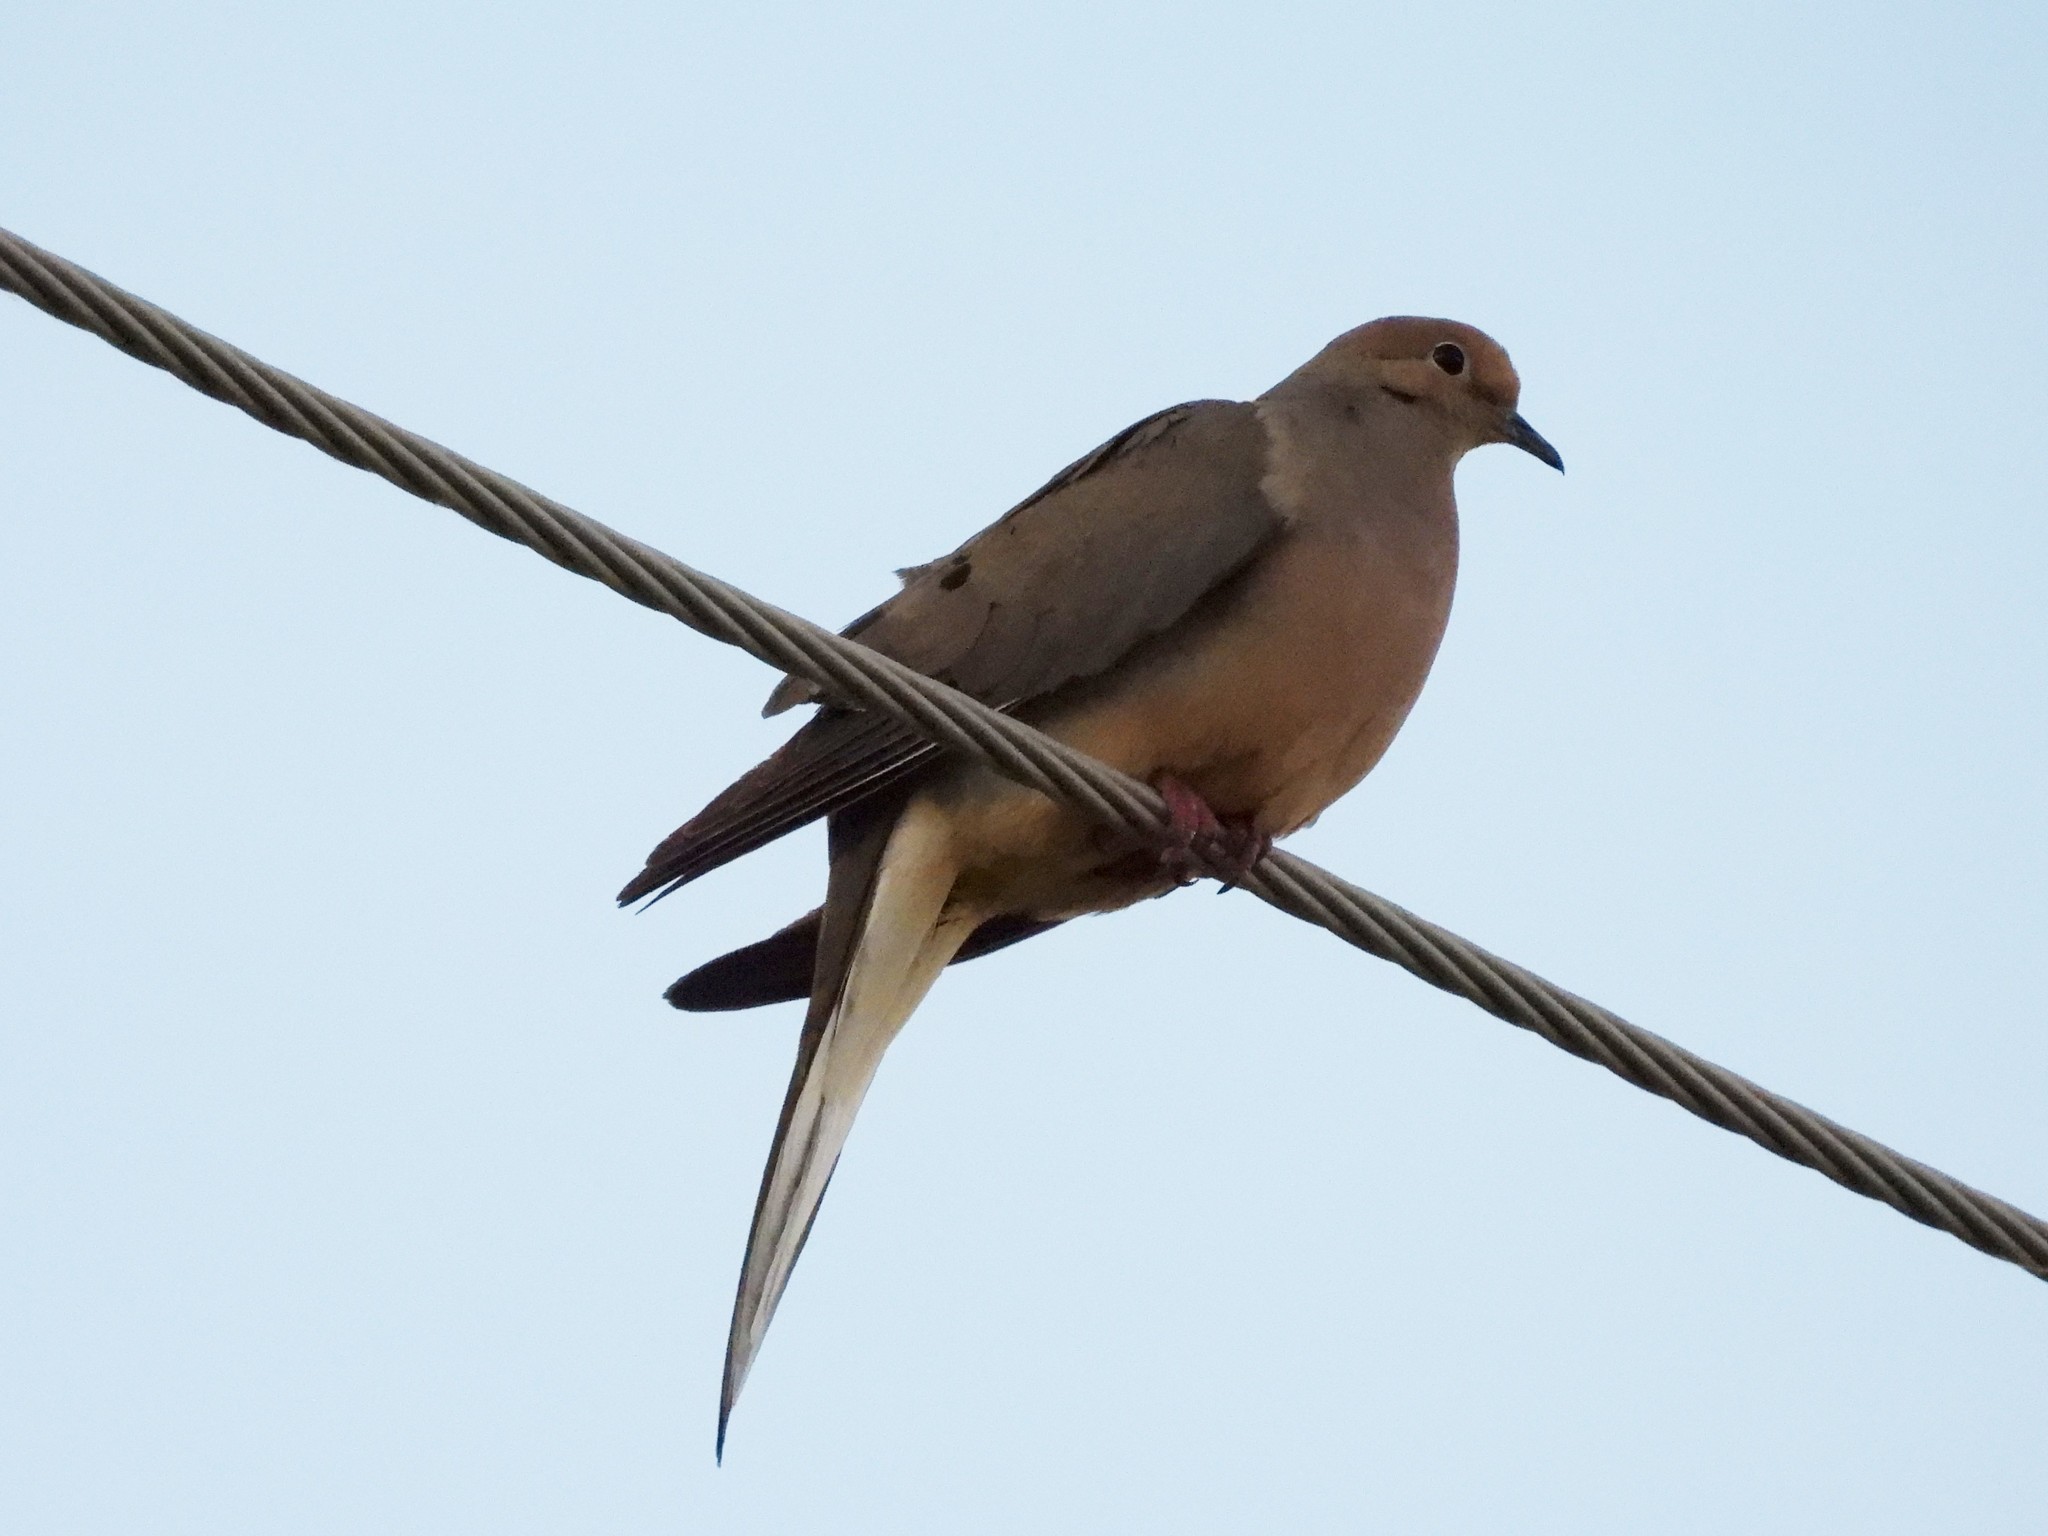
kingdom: Animalia
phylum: Chordata
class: Aves
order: Columbiformes
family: Columbidae
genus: Zenaida
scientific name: Zenaida macroura
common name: Mourning dove
